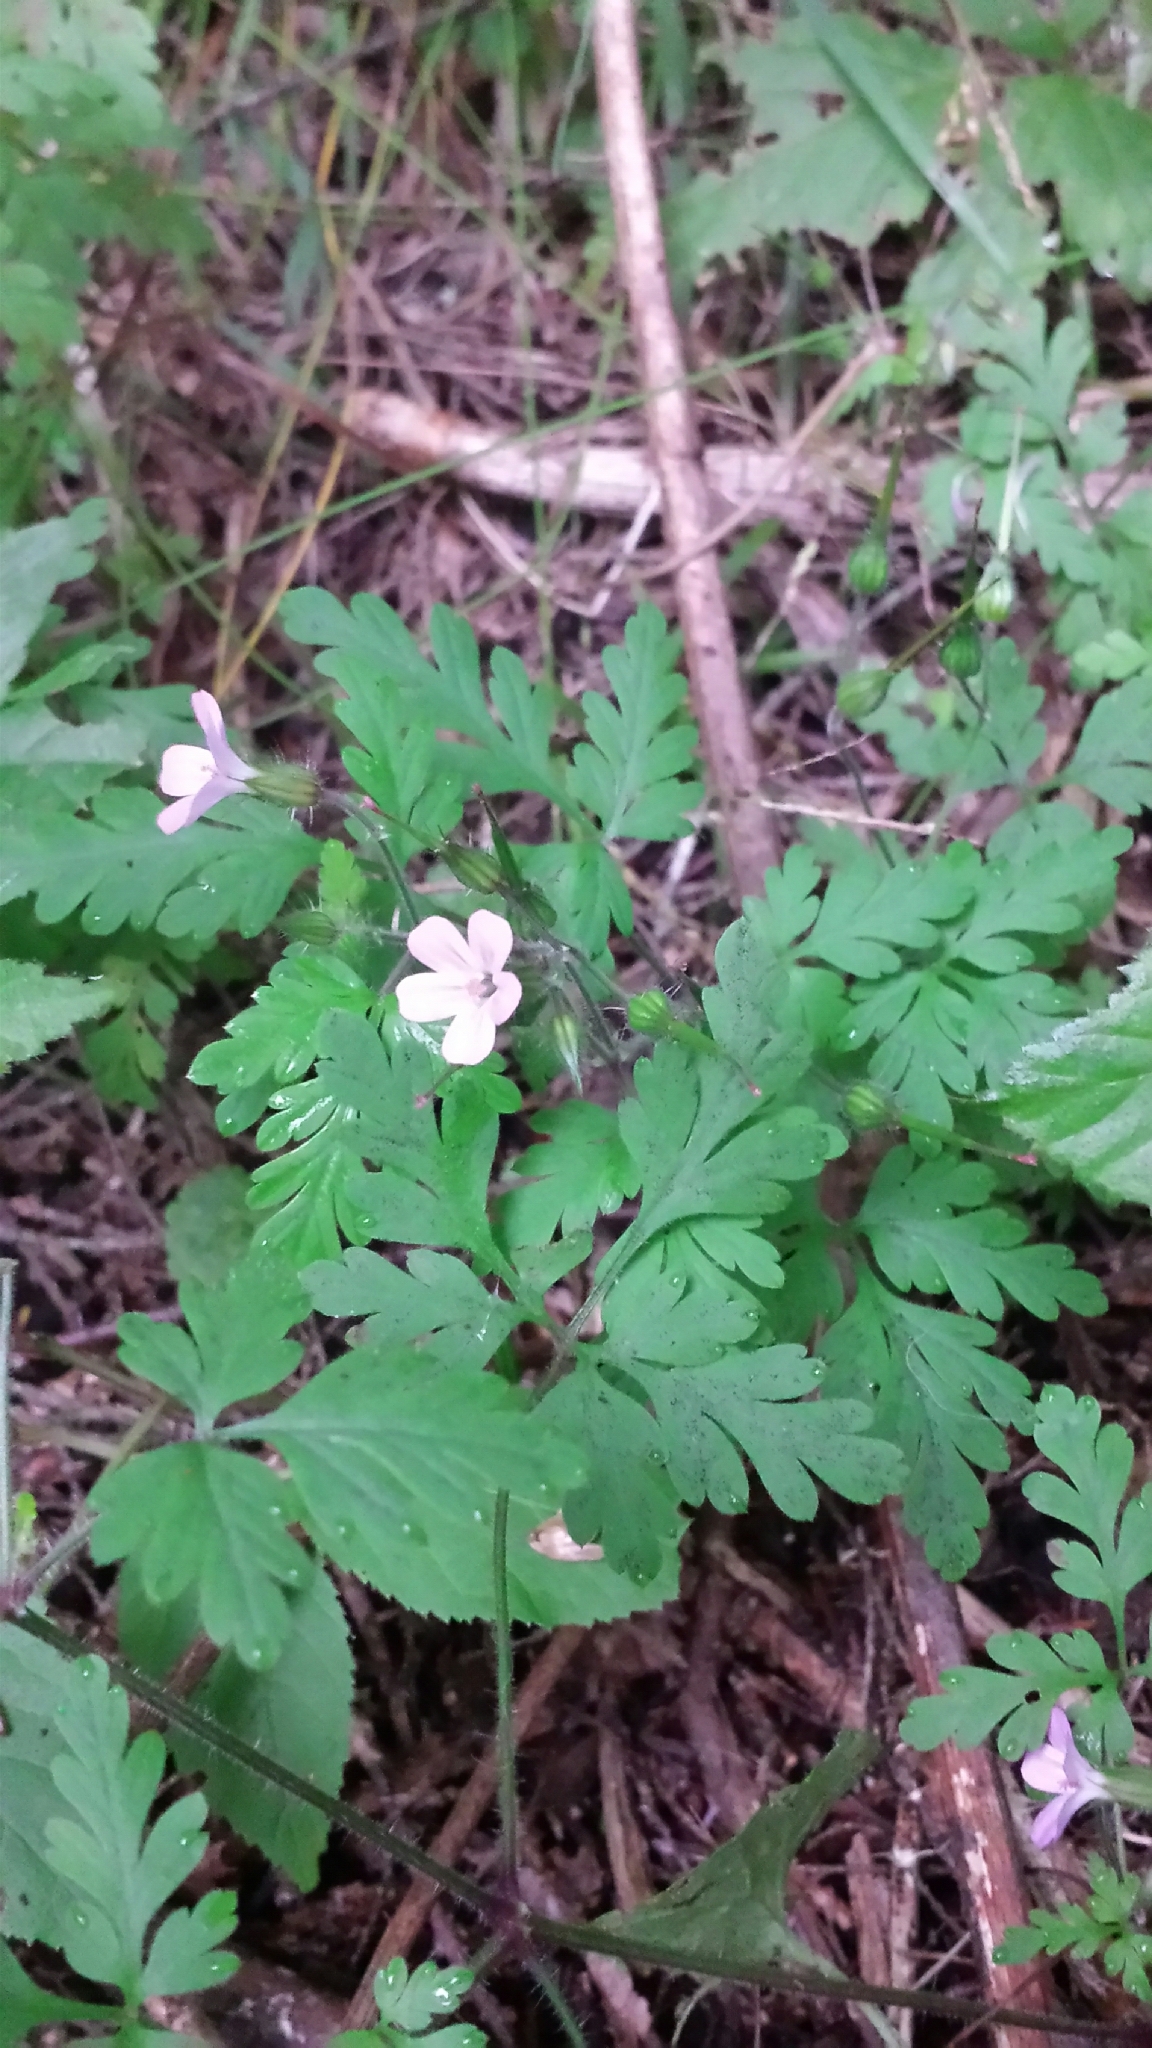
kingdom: Plantae
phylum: Tracheophyta
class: Magnoliopsida
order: Geraniales
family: Geraniaceae
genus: Geranium
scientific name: Geranium robertianum
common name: Herb-robert
